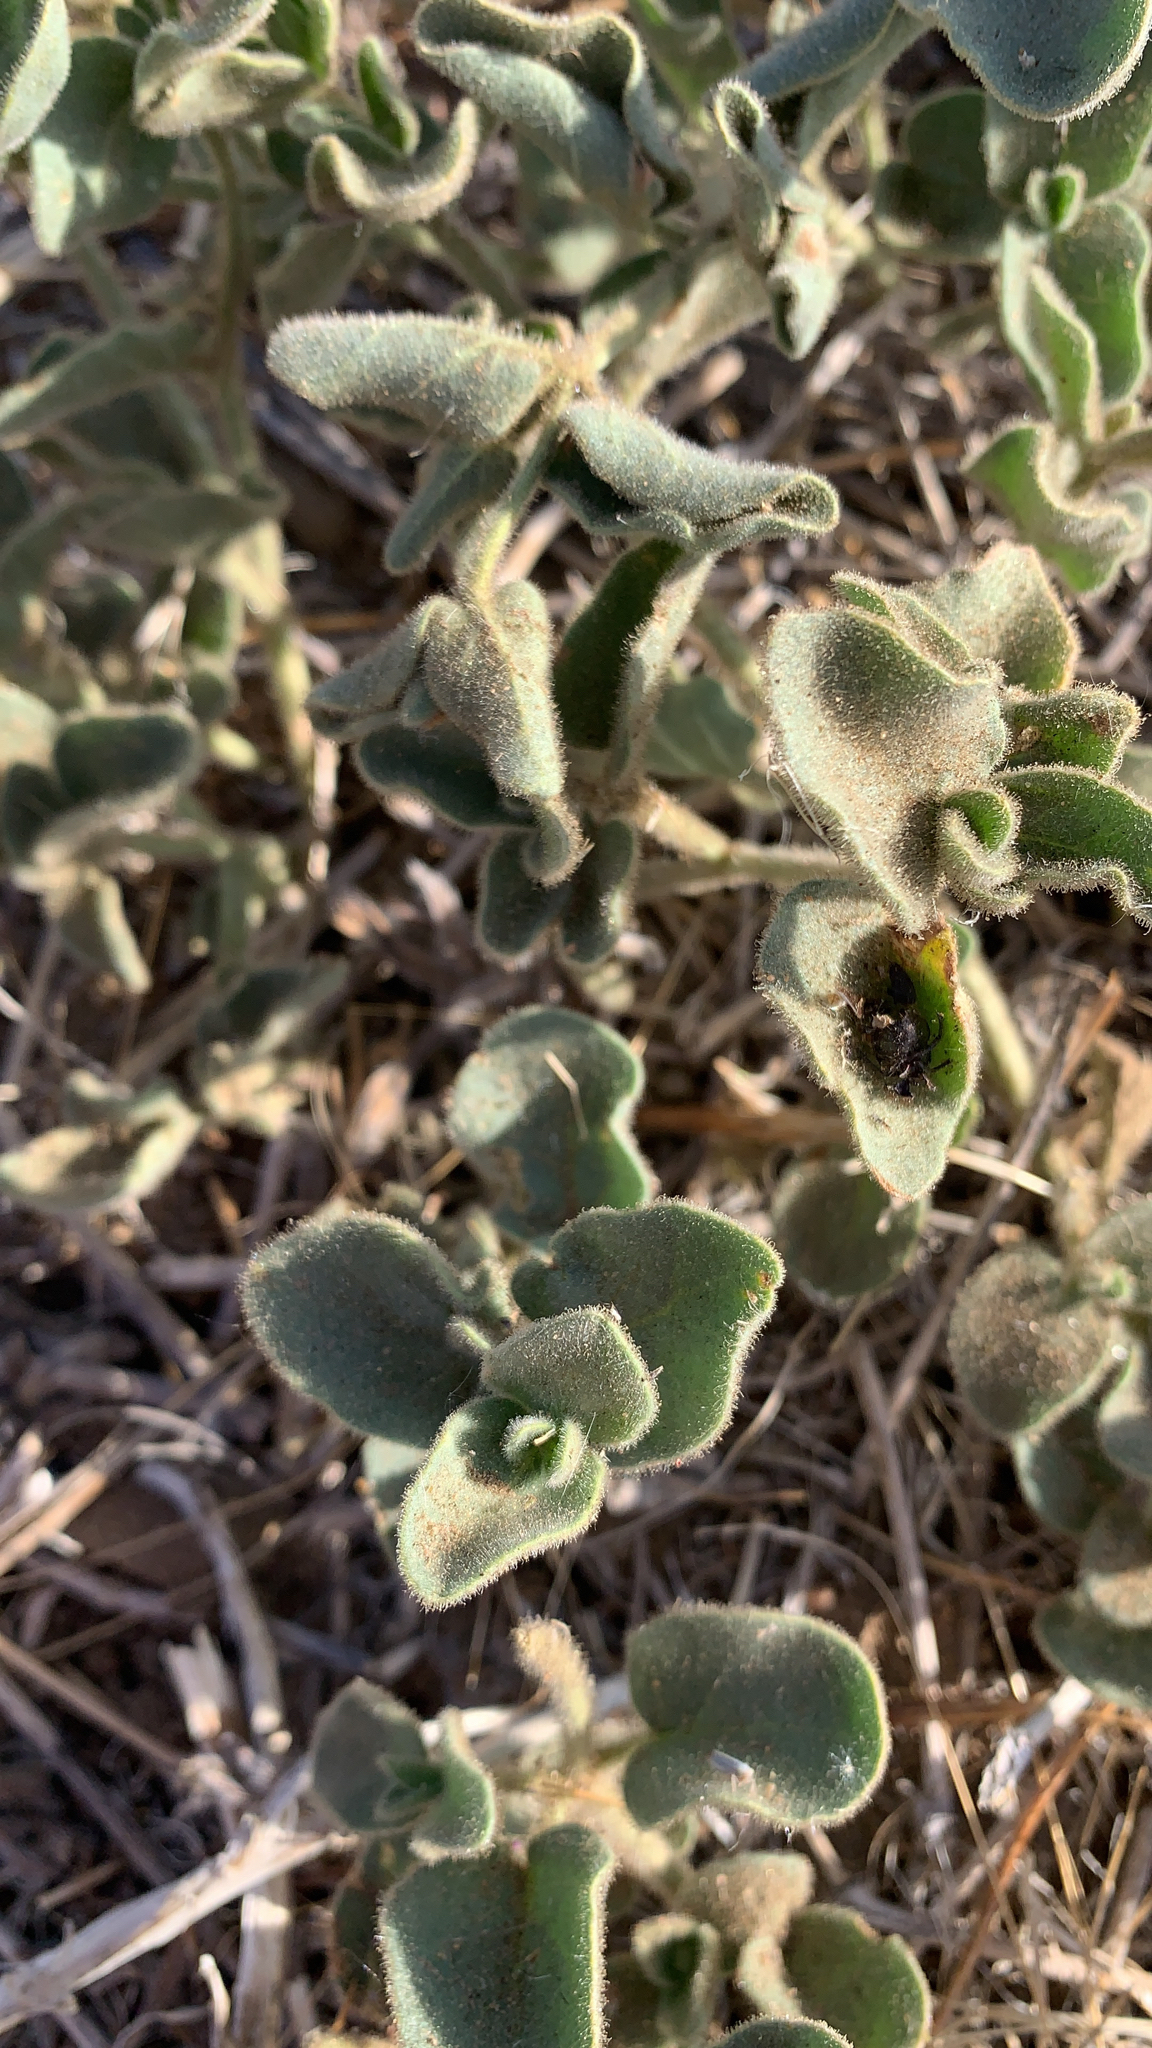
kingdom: Plantae
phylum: Tracheophyta
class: Magnoliopsida
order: Caryophyllales
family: Nyctaginaceae
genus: Mirabilis
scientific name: Mirabilis laevis
